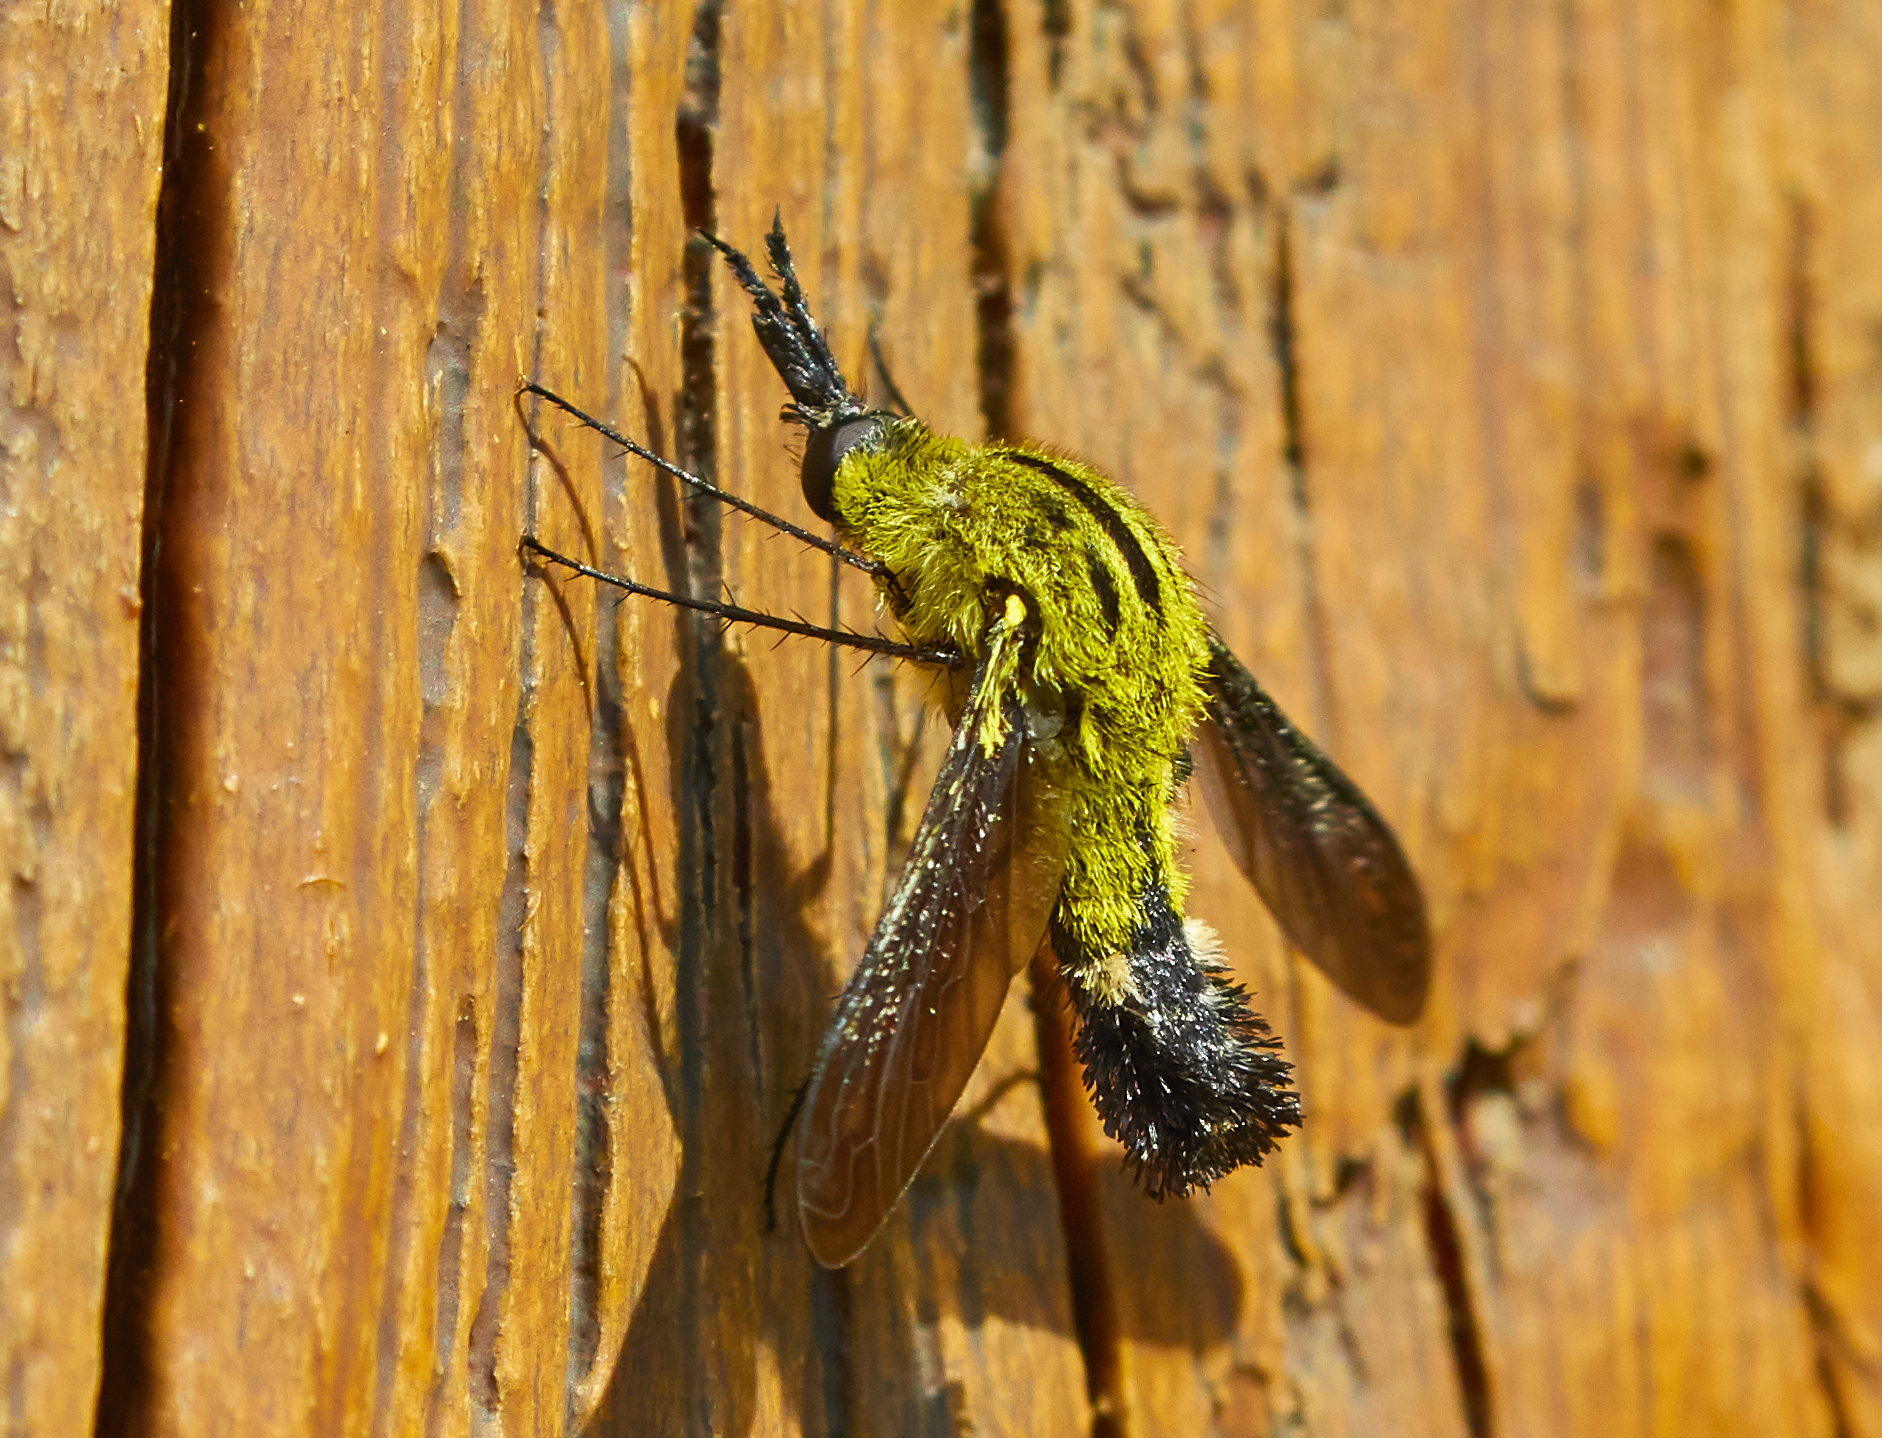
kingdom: Animalia
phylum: Arthropoda
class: Insecta
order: Diptera
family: Bombyliidae
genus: Lepidophora
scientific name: Lepidophora lutea
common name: Hunchback bee fly
